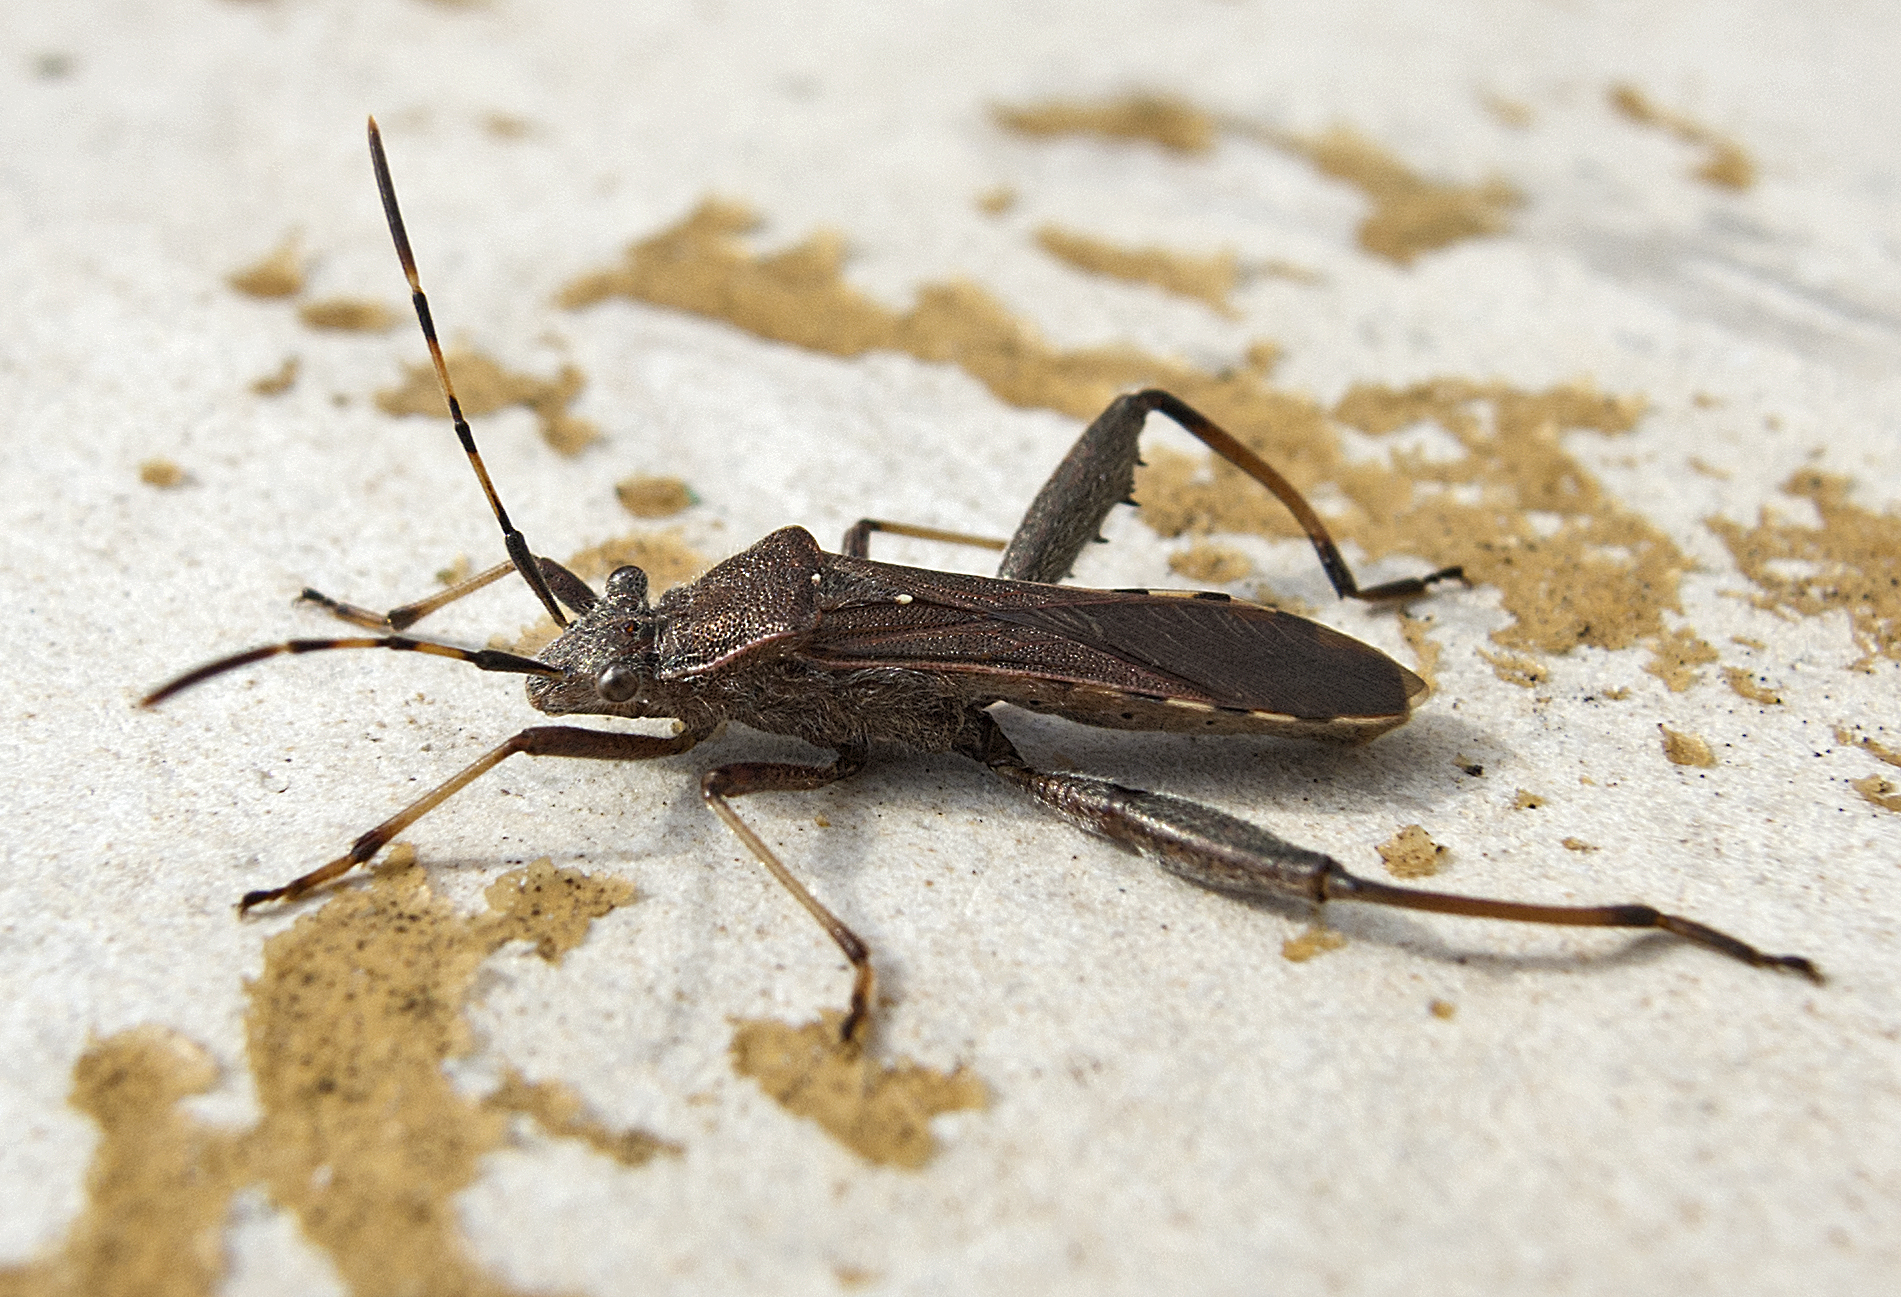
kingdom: Animalia
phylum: Arthropoda
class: Insecta
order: Hemiptera
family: Alydidae
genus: Camptopus
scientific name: Camptopus lateralis
